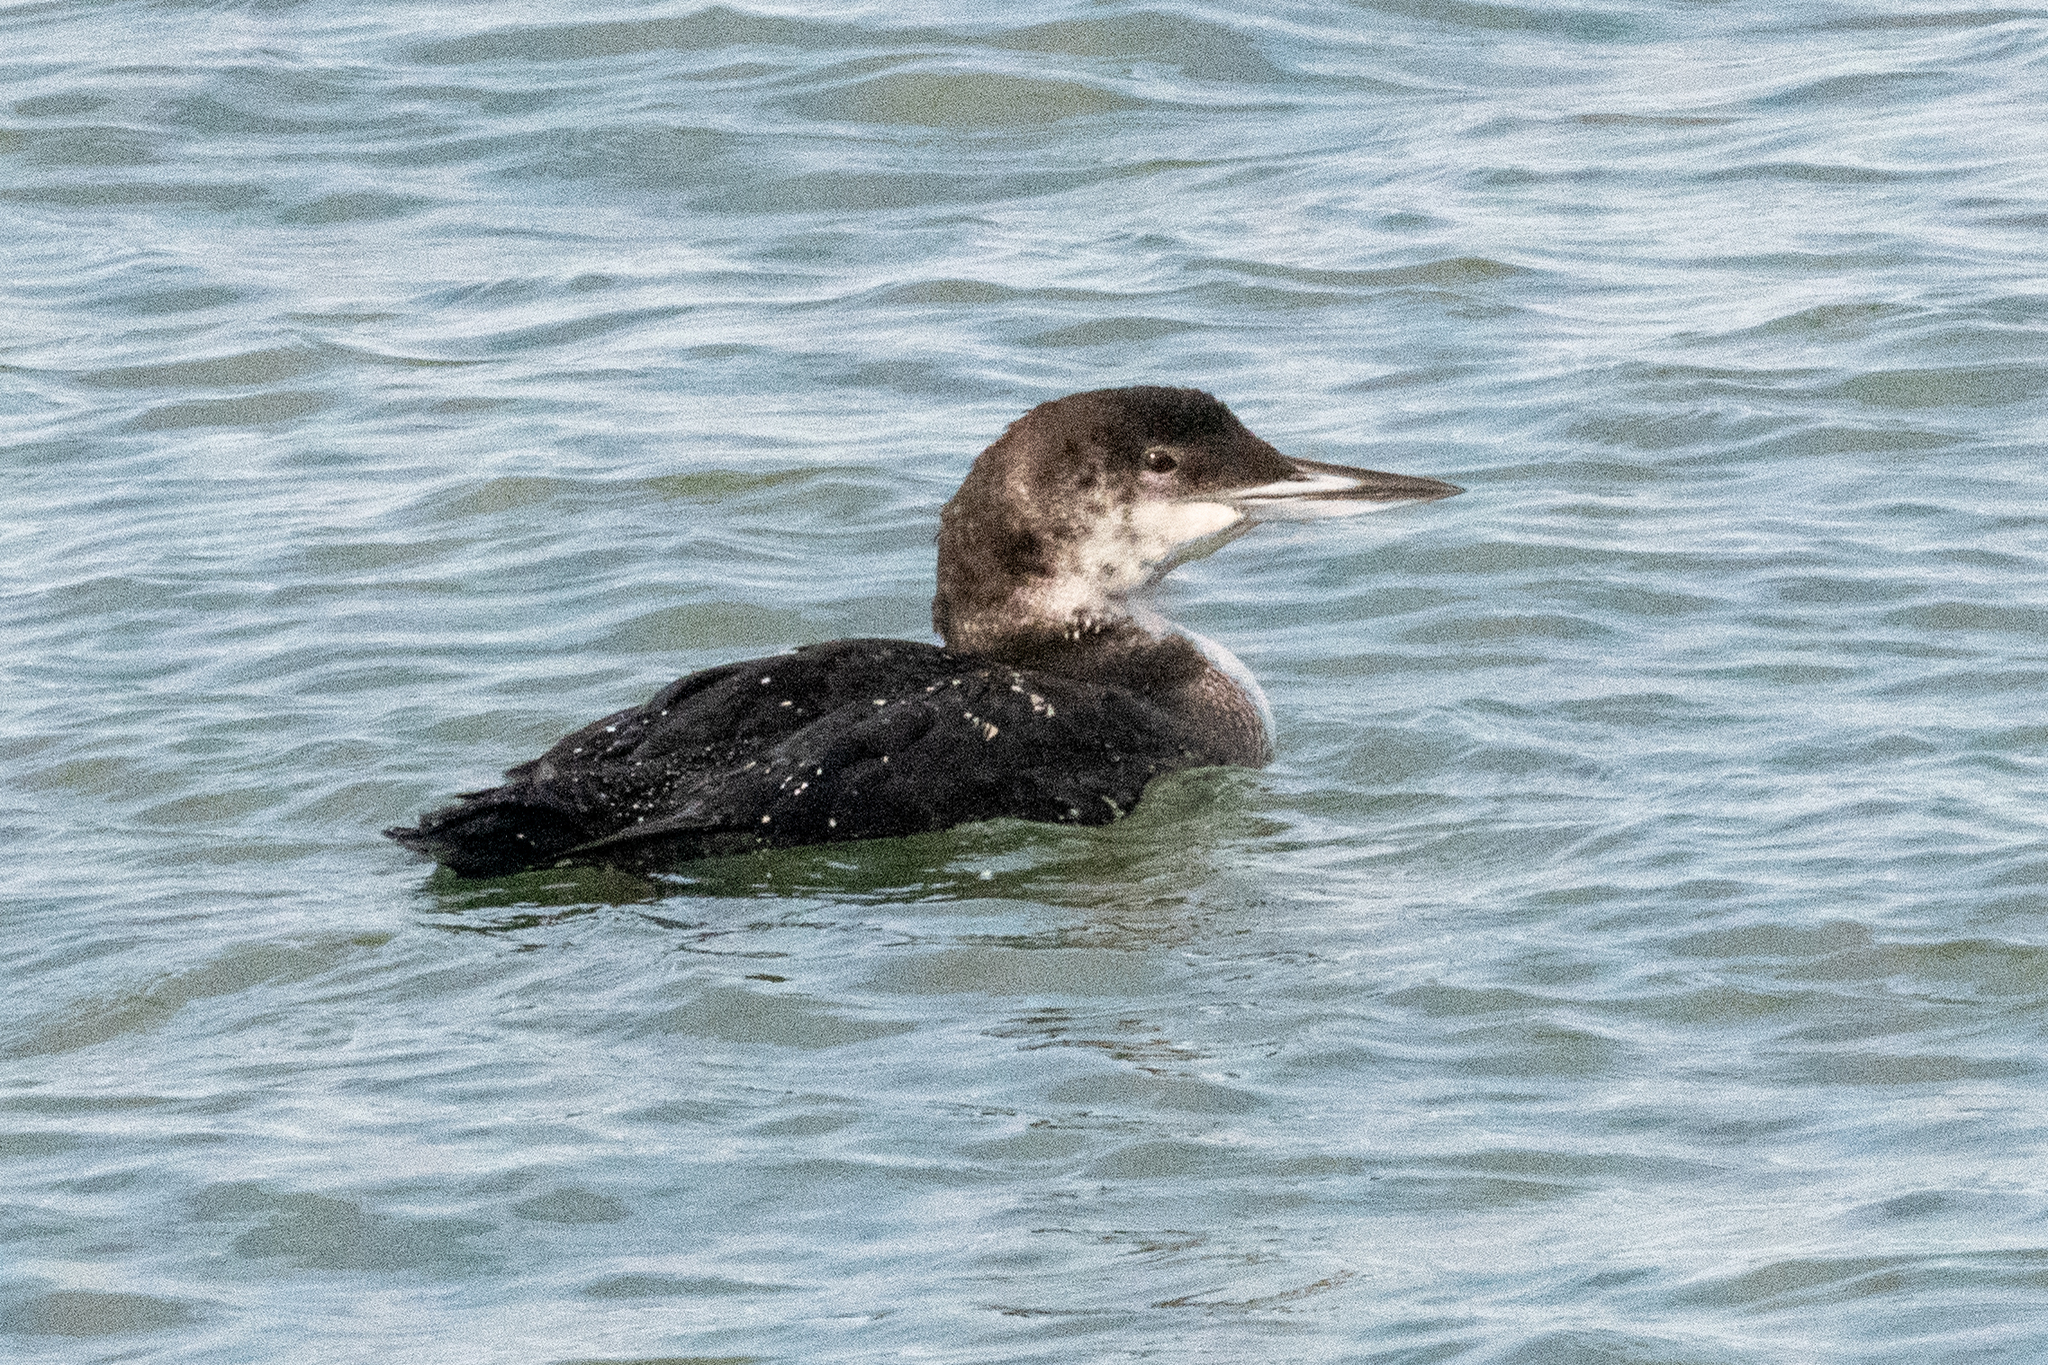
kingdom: Animalia
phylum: Chordata
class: Aves
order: Gaviiformes
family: Gaviidae
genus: Gavia
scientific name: Gavia immer
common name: Common loon
